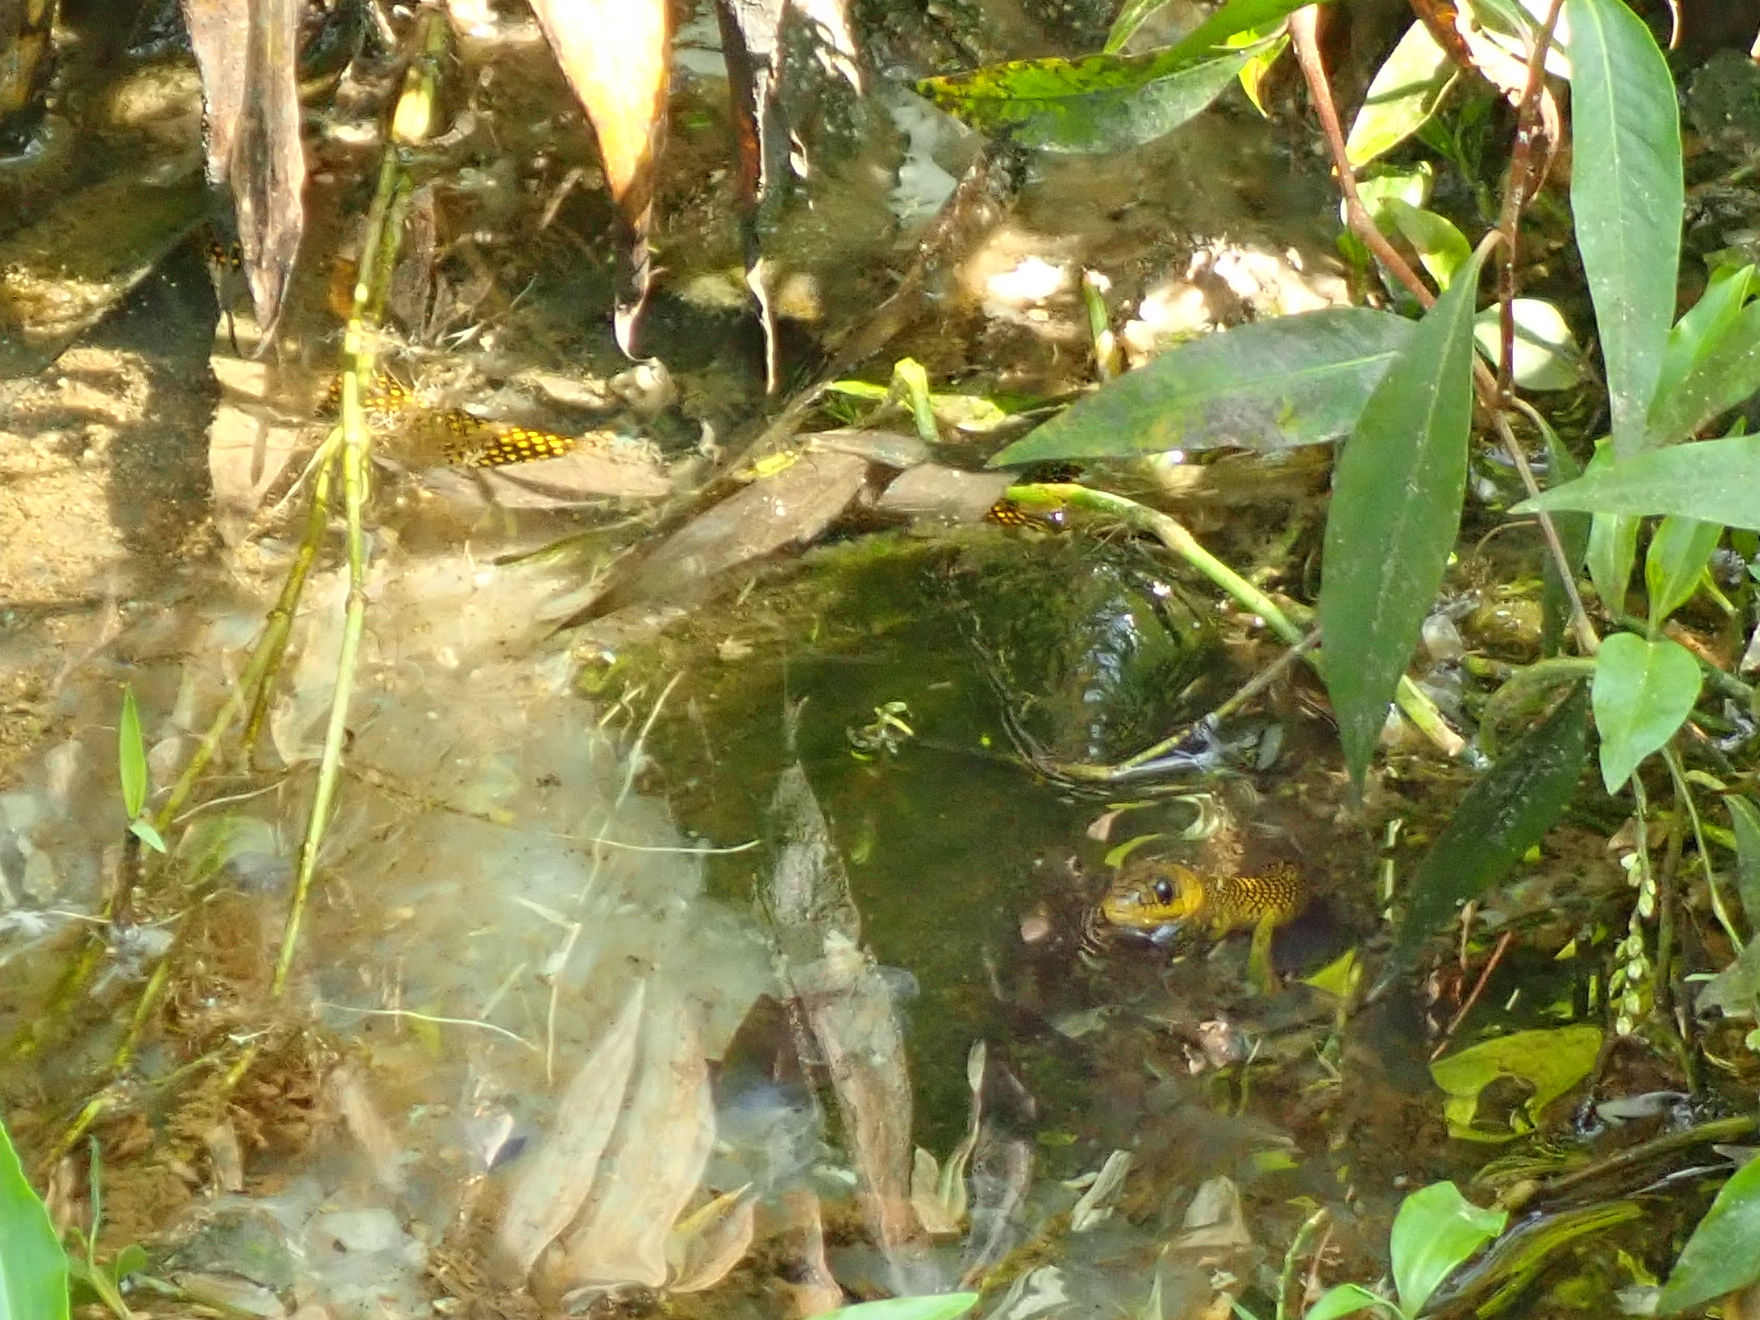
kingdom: Animalia
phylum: Chordata
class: Squamata
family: Colubridae
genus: Erythrolamprus
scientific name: Erythrolamprus miliaris
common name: Military ground snake
